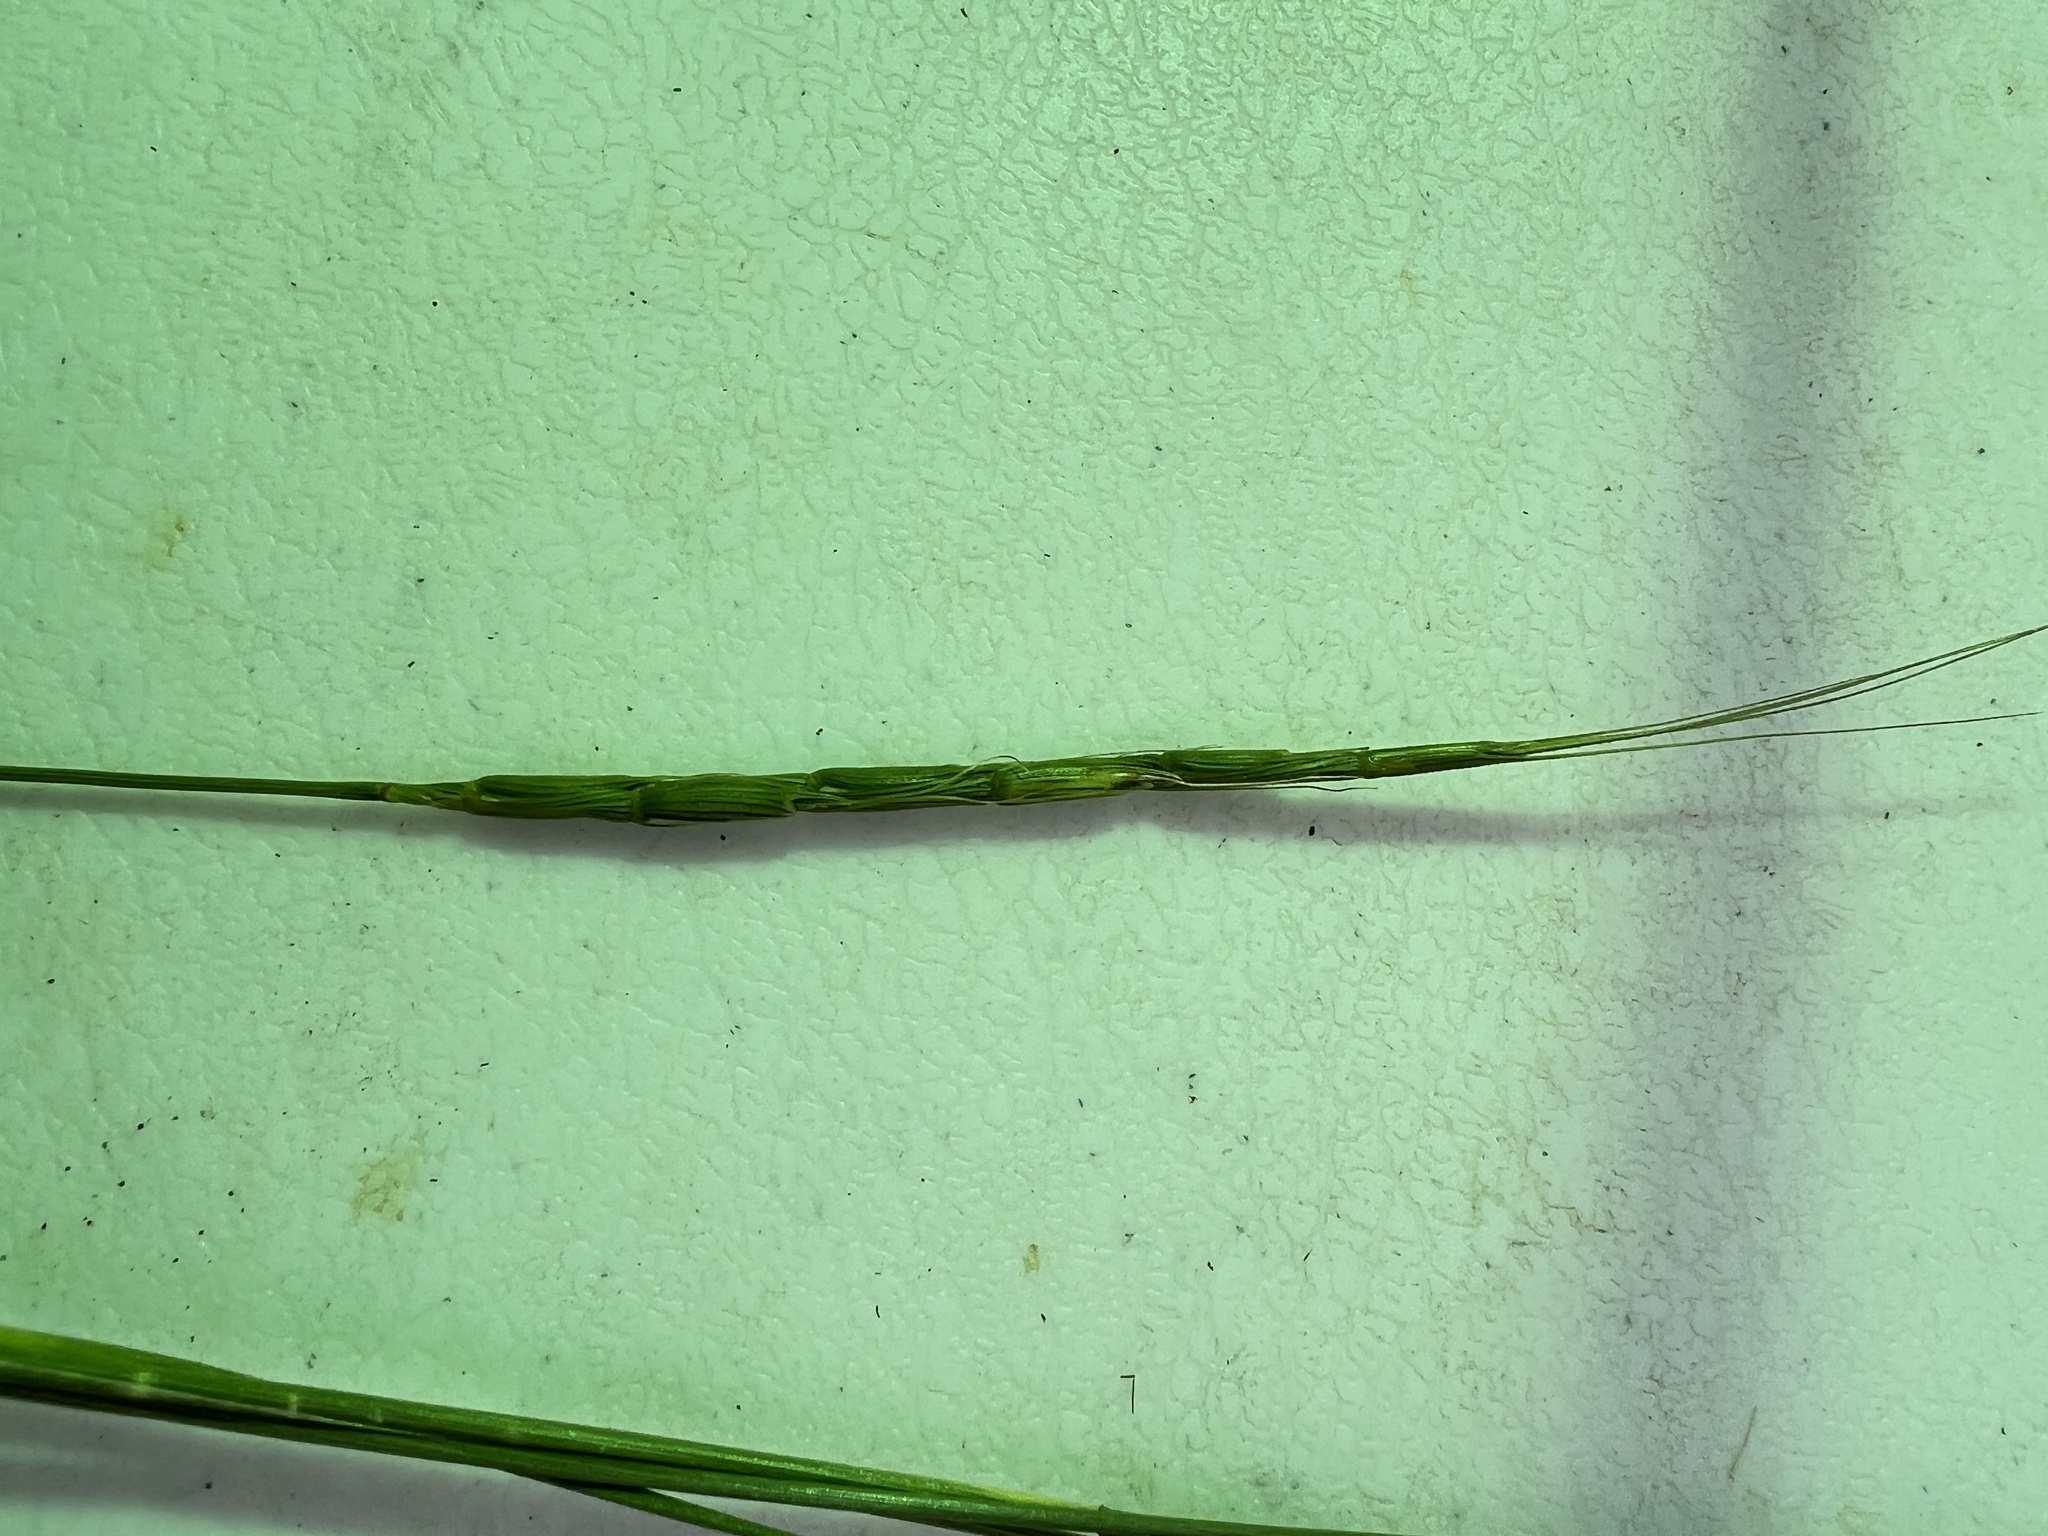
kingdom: Plantae
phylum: Tracheophyta
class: Liliopsida
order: Poales
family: Poaceae
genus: Aegilops
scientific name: Aegilops cylindrica
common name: Jointed goatgrass
